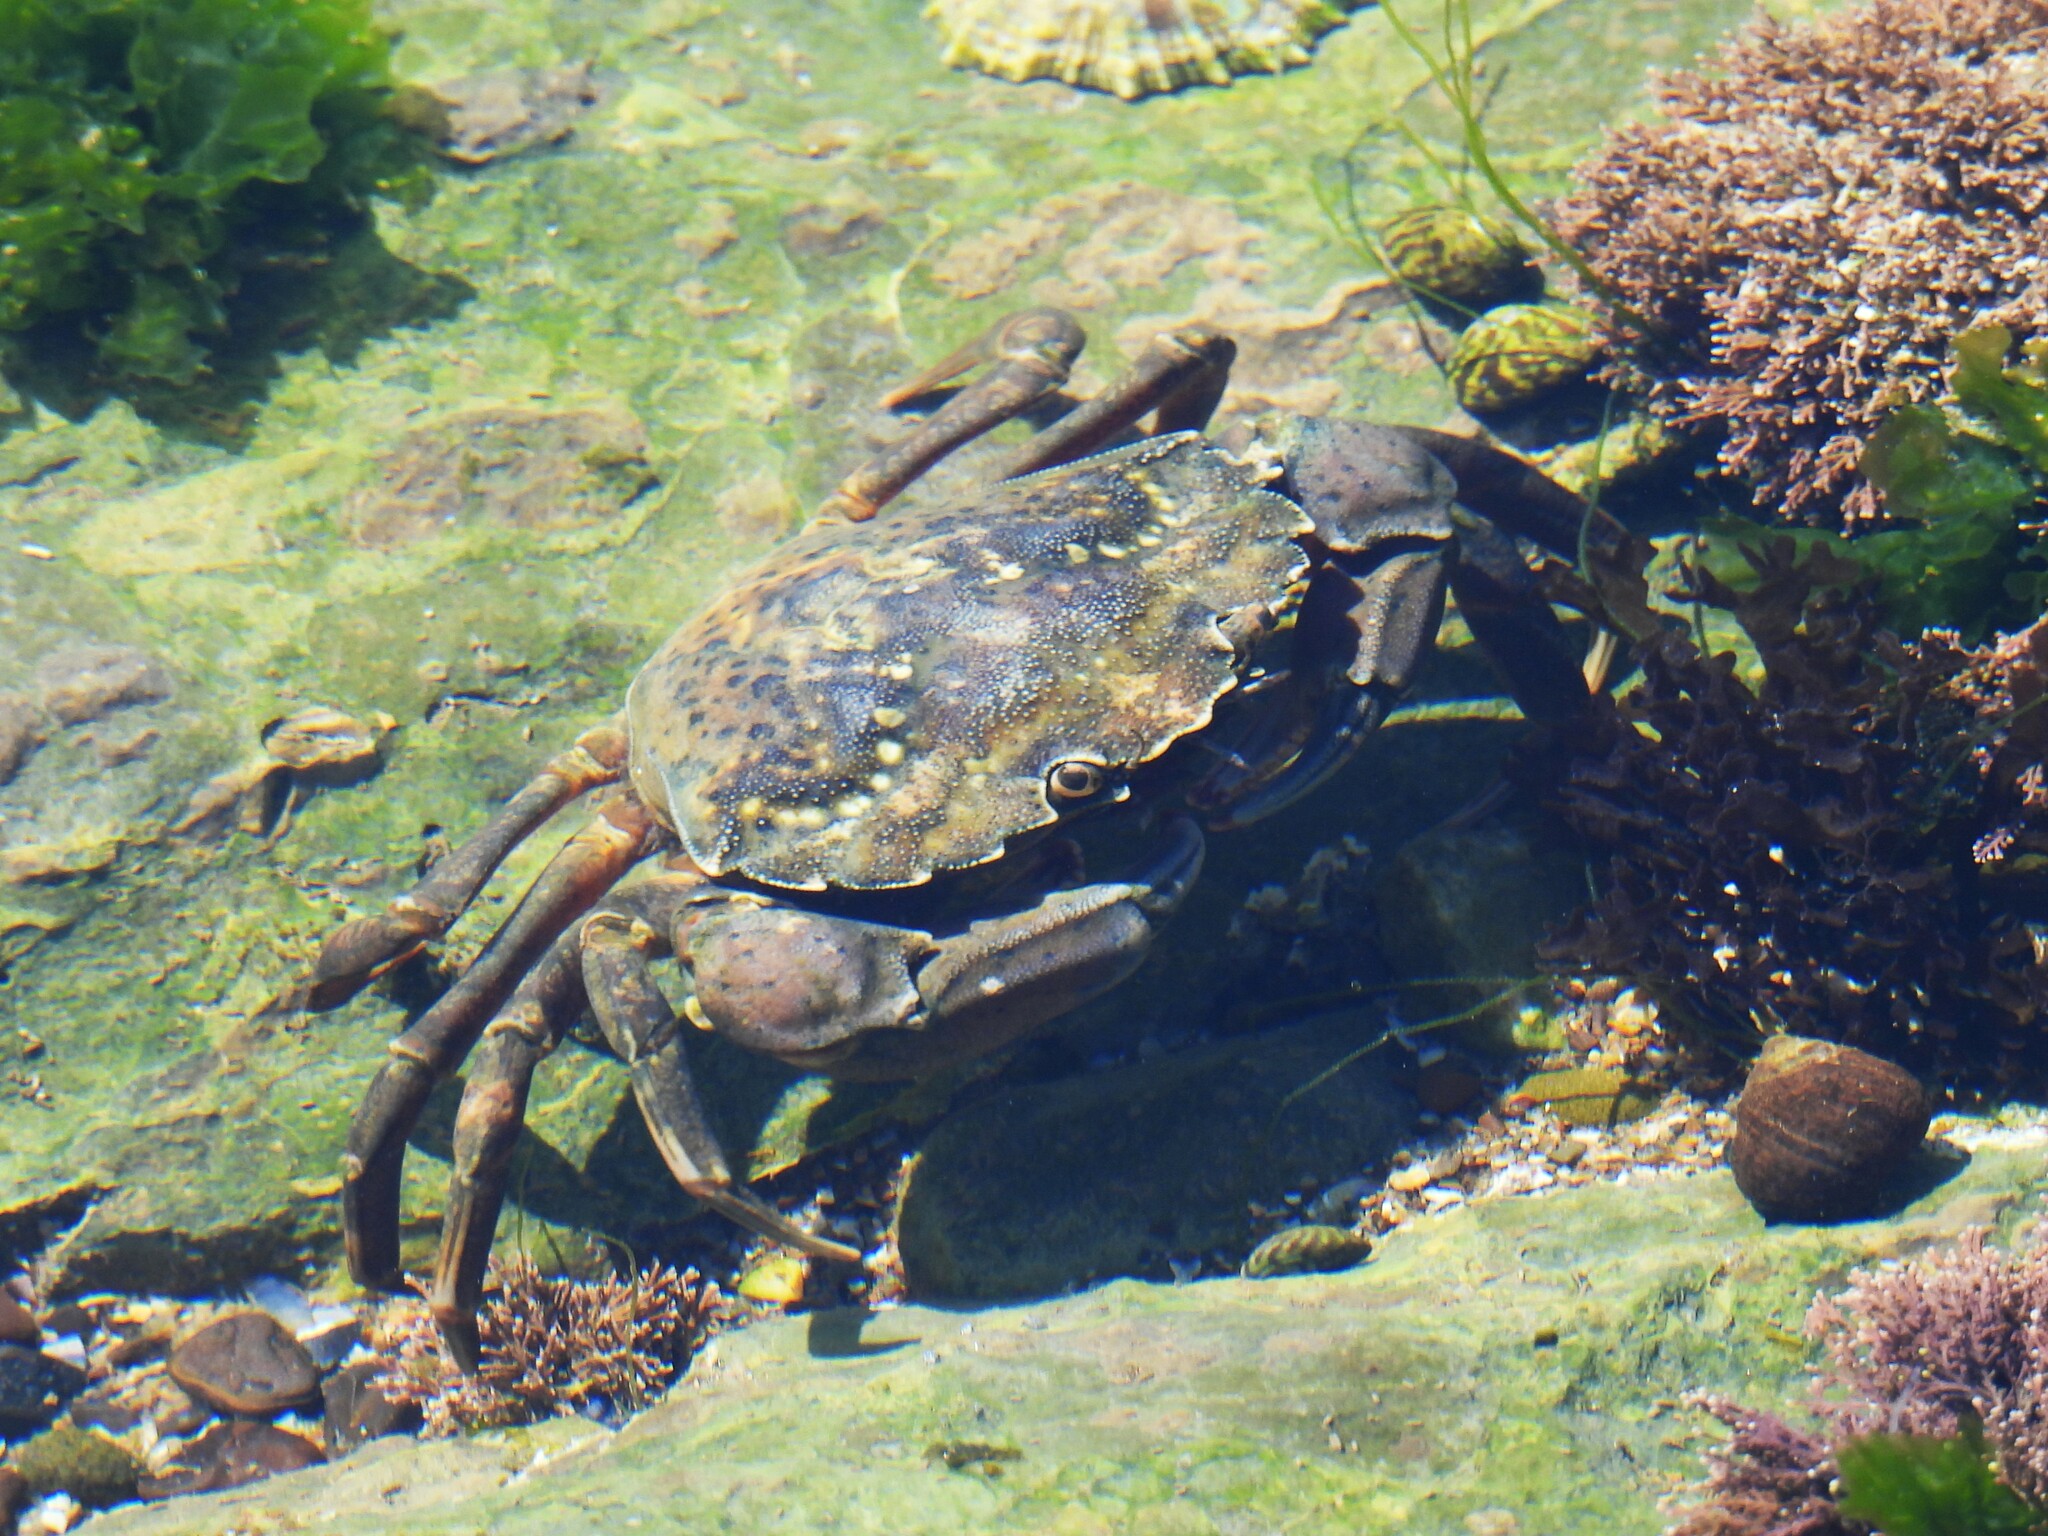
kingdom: Animalia
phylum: Arthropoda
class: Malacostraca
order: Decapoda
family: Carcinidae
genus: Carcinus
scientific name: Carcinus maenas
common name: European green crab
